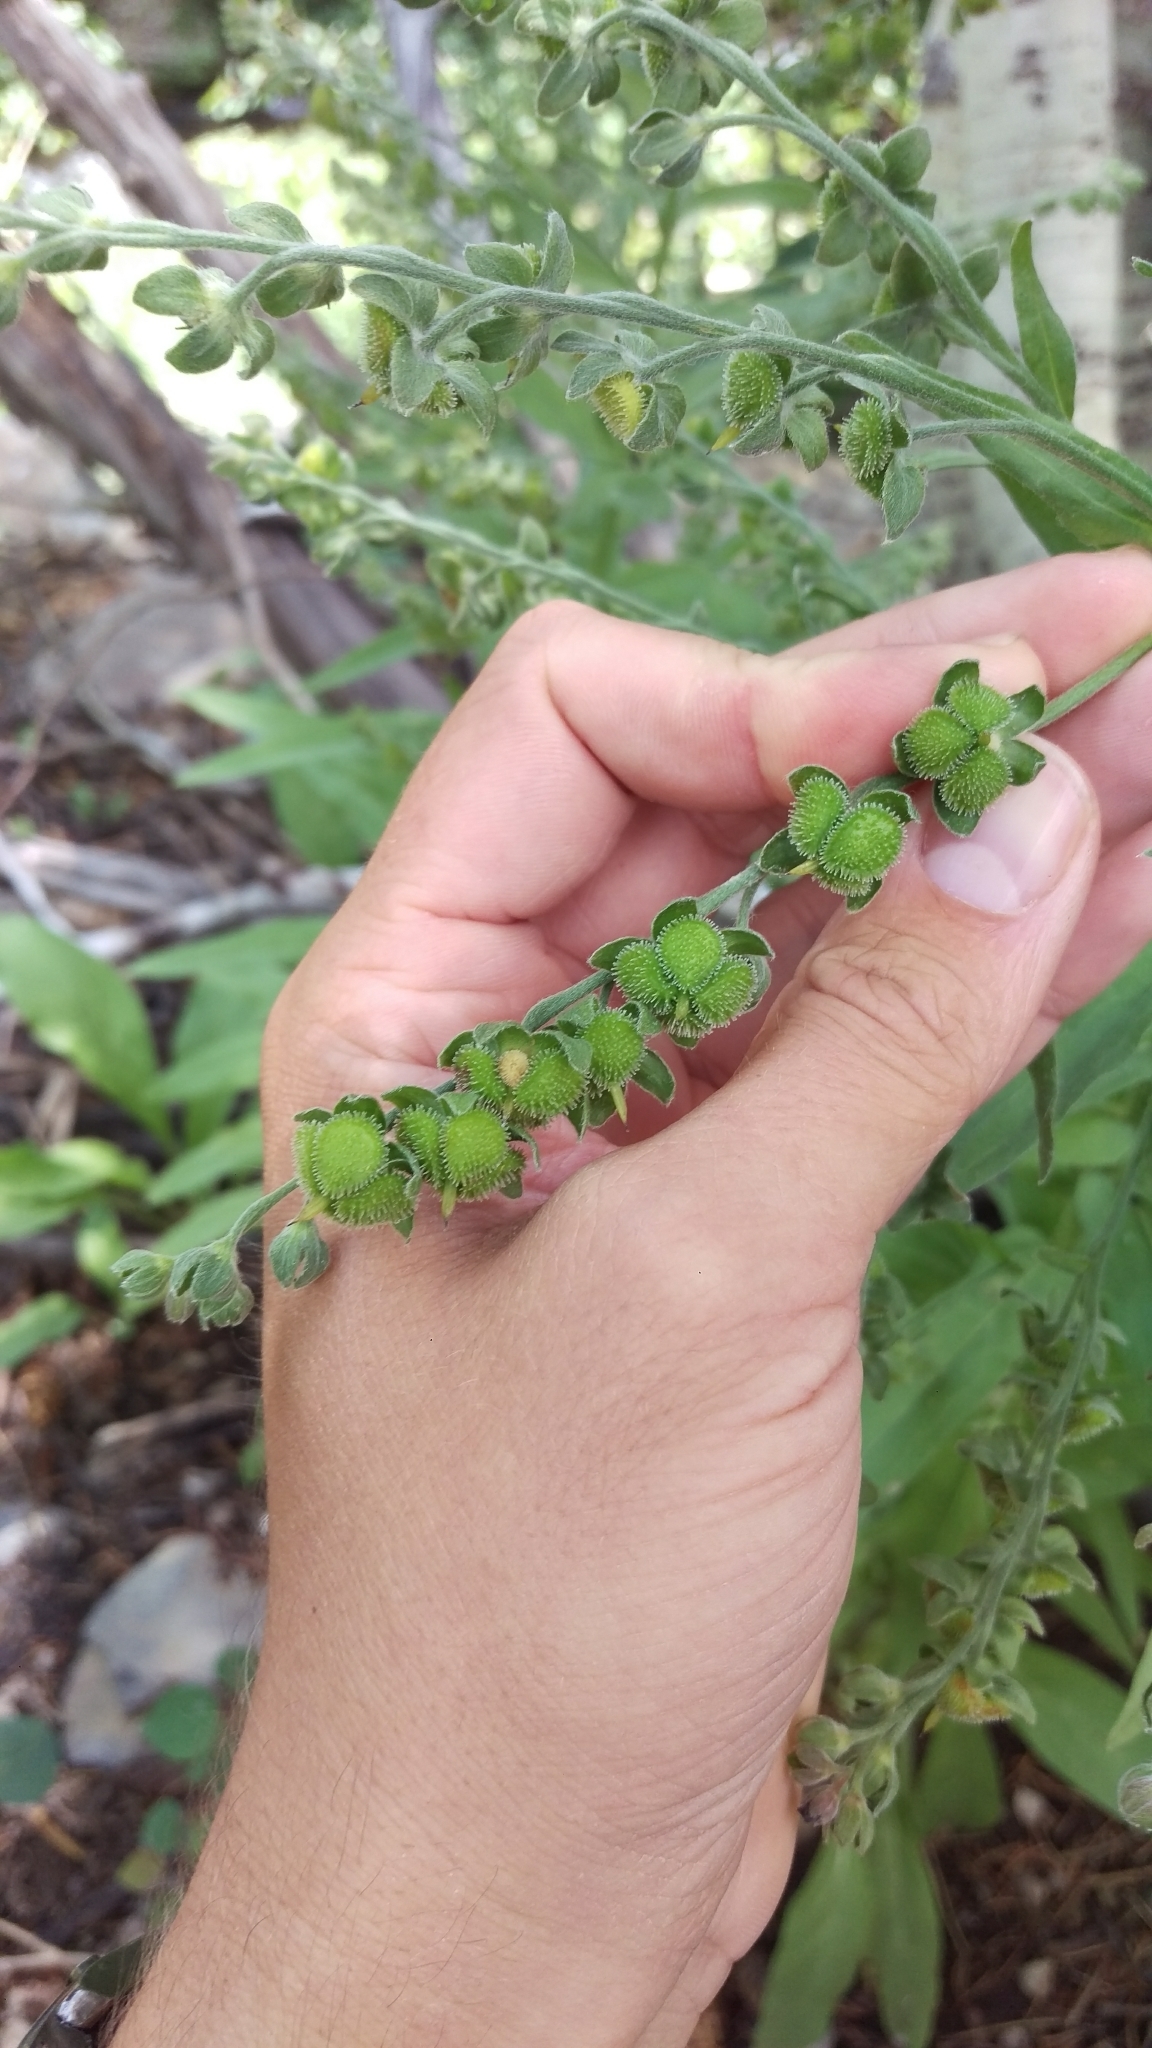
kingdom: Plantae
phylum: Tracheophyta
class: Magnoliopsida
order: Boraginales
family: Boraginaceae
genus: Cynoglossum
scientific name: Cynoglossum officinale
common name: Hound's-tongue
